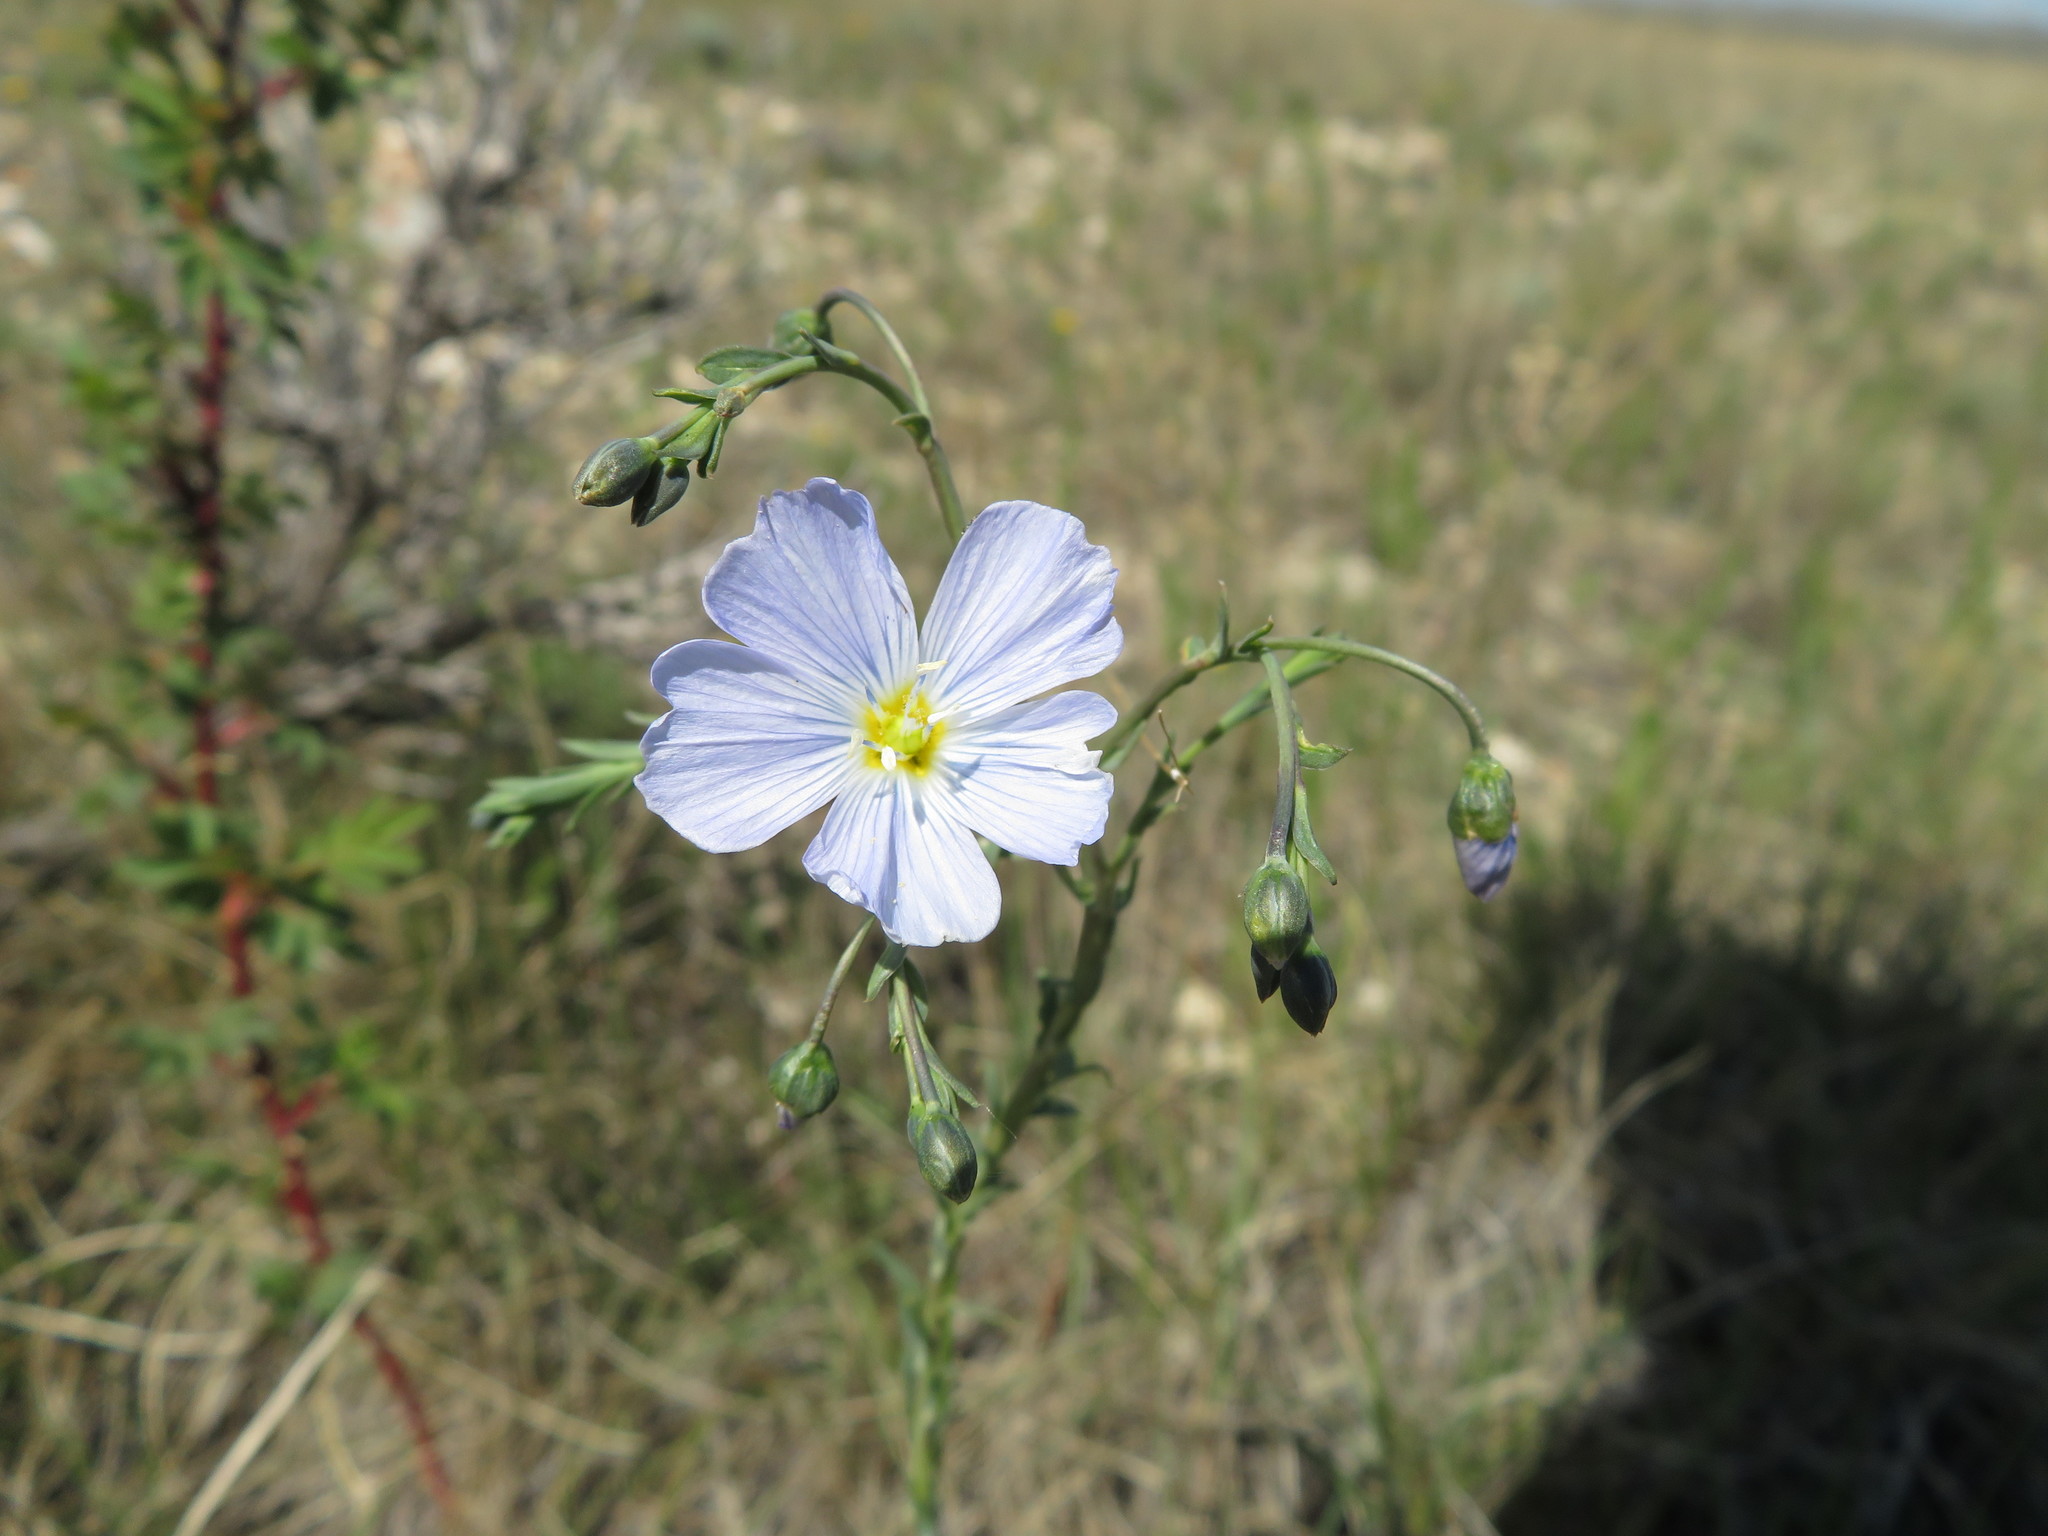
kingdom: Plantae
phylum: Tracheophyta
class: Magnoliopsida
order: Malpighiales
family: Linaceae
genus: Linum
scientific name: Linum lewisii
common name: Prairie flax
